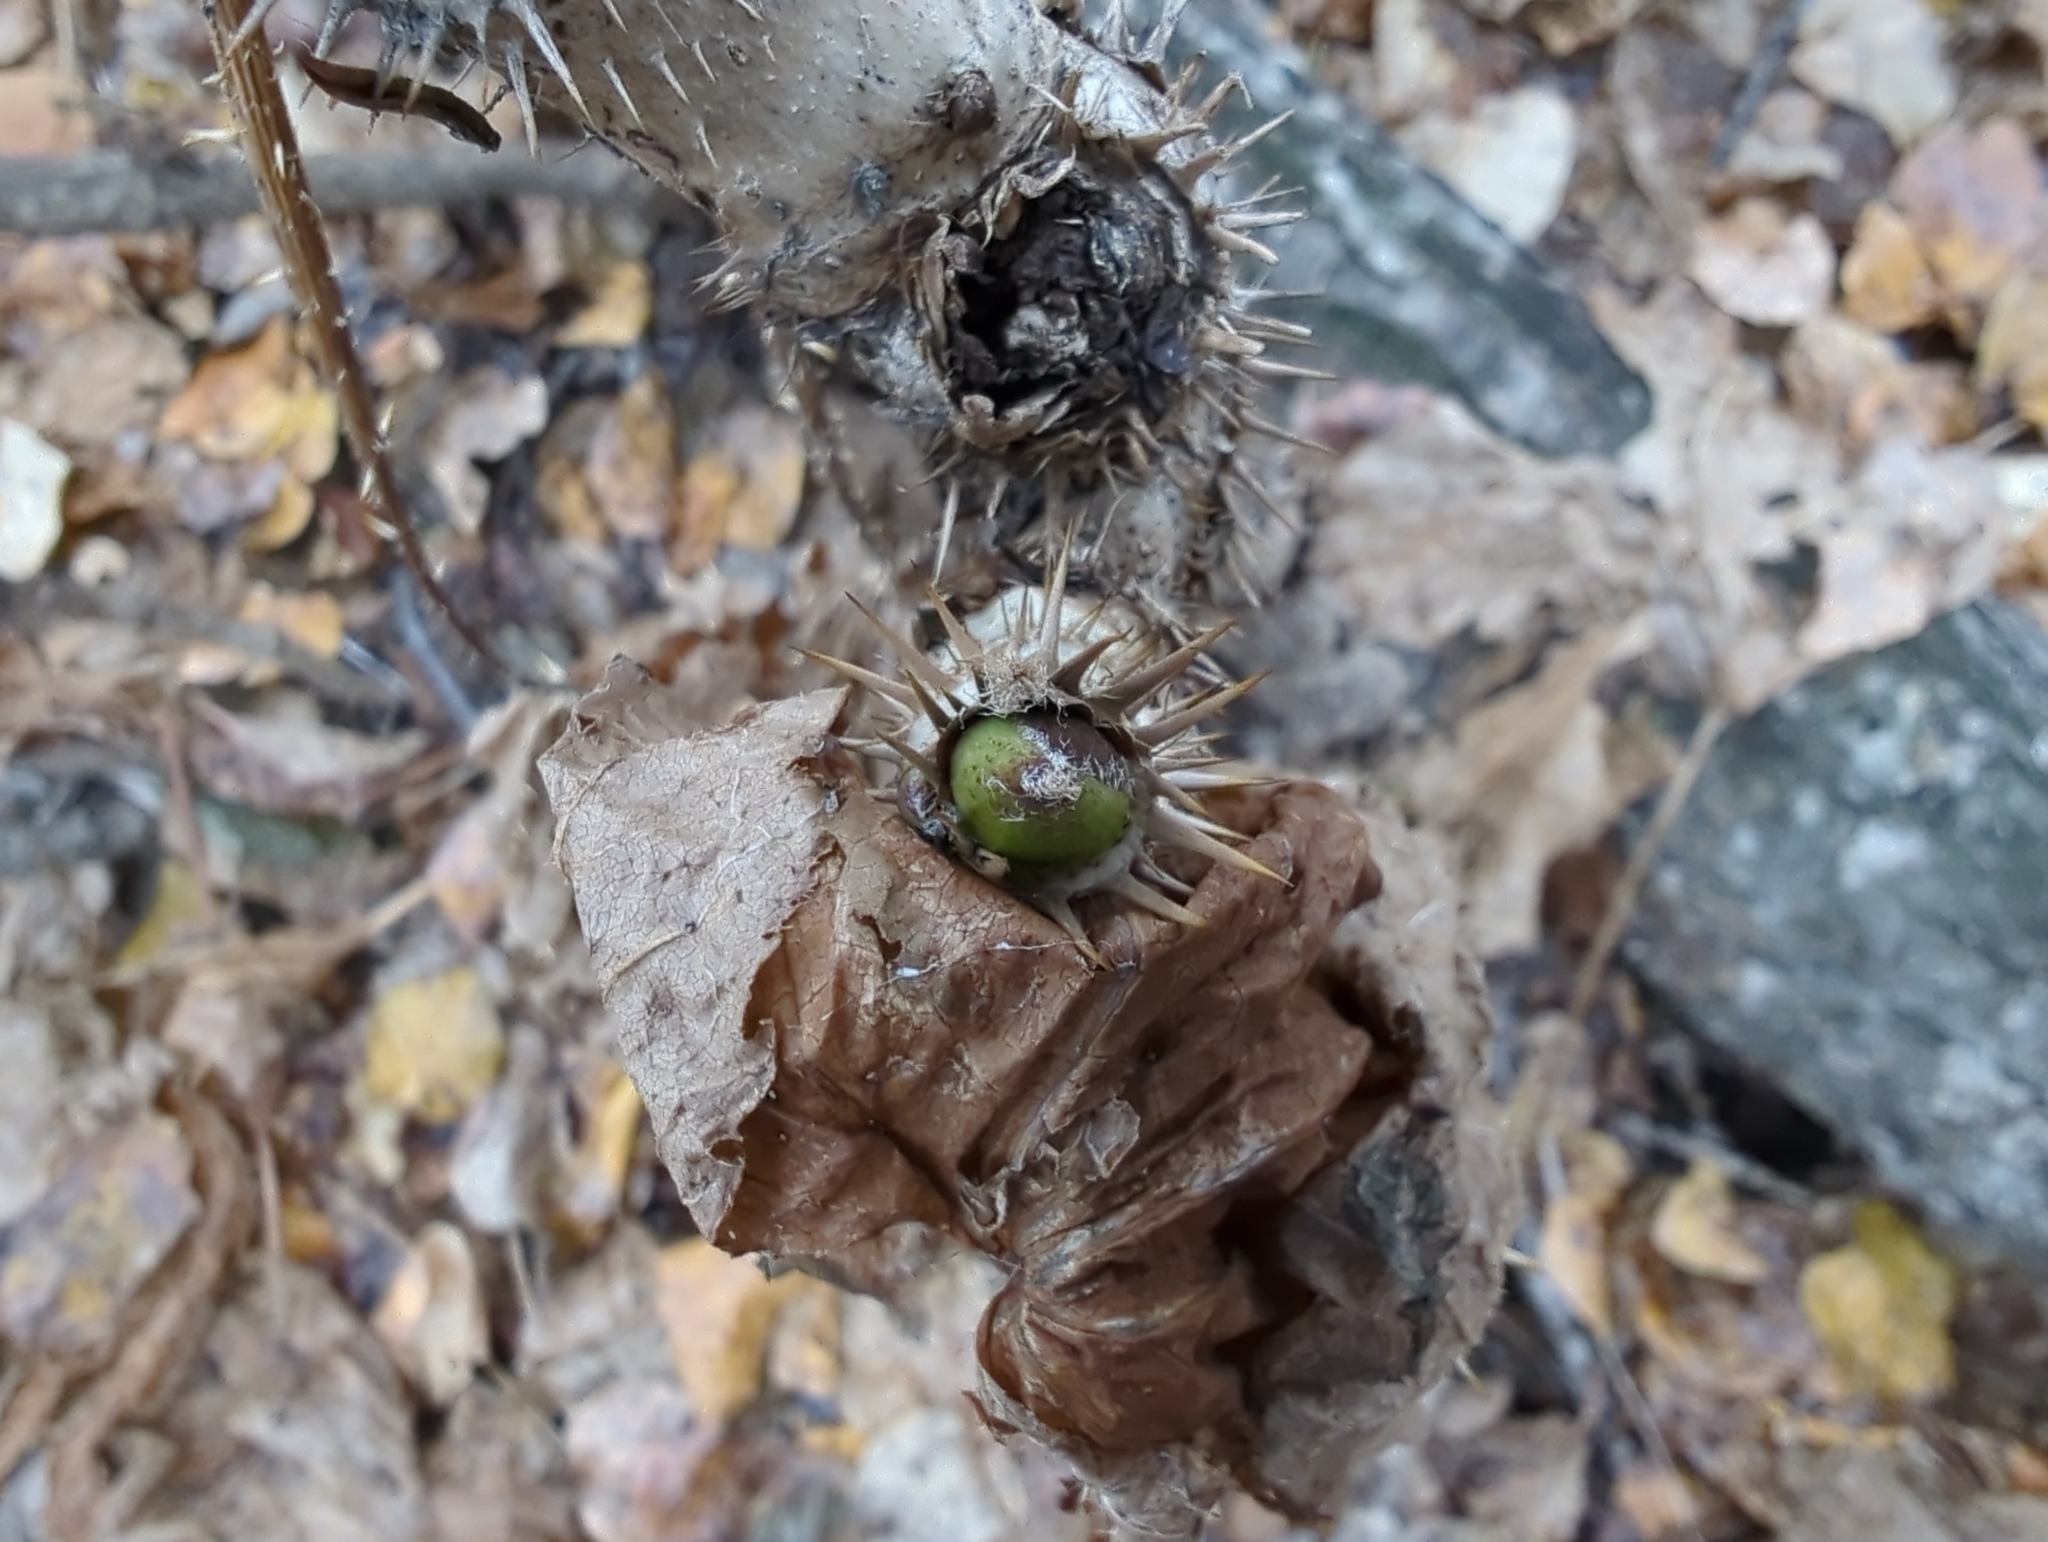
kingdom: Plantae
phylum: Tracheophyta
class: Magnoliopsida
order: Apiales
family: Araliaceae
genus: Oplopanax
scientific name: Oplopanax horridus
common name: Devil's walking-stick
